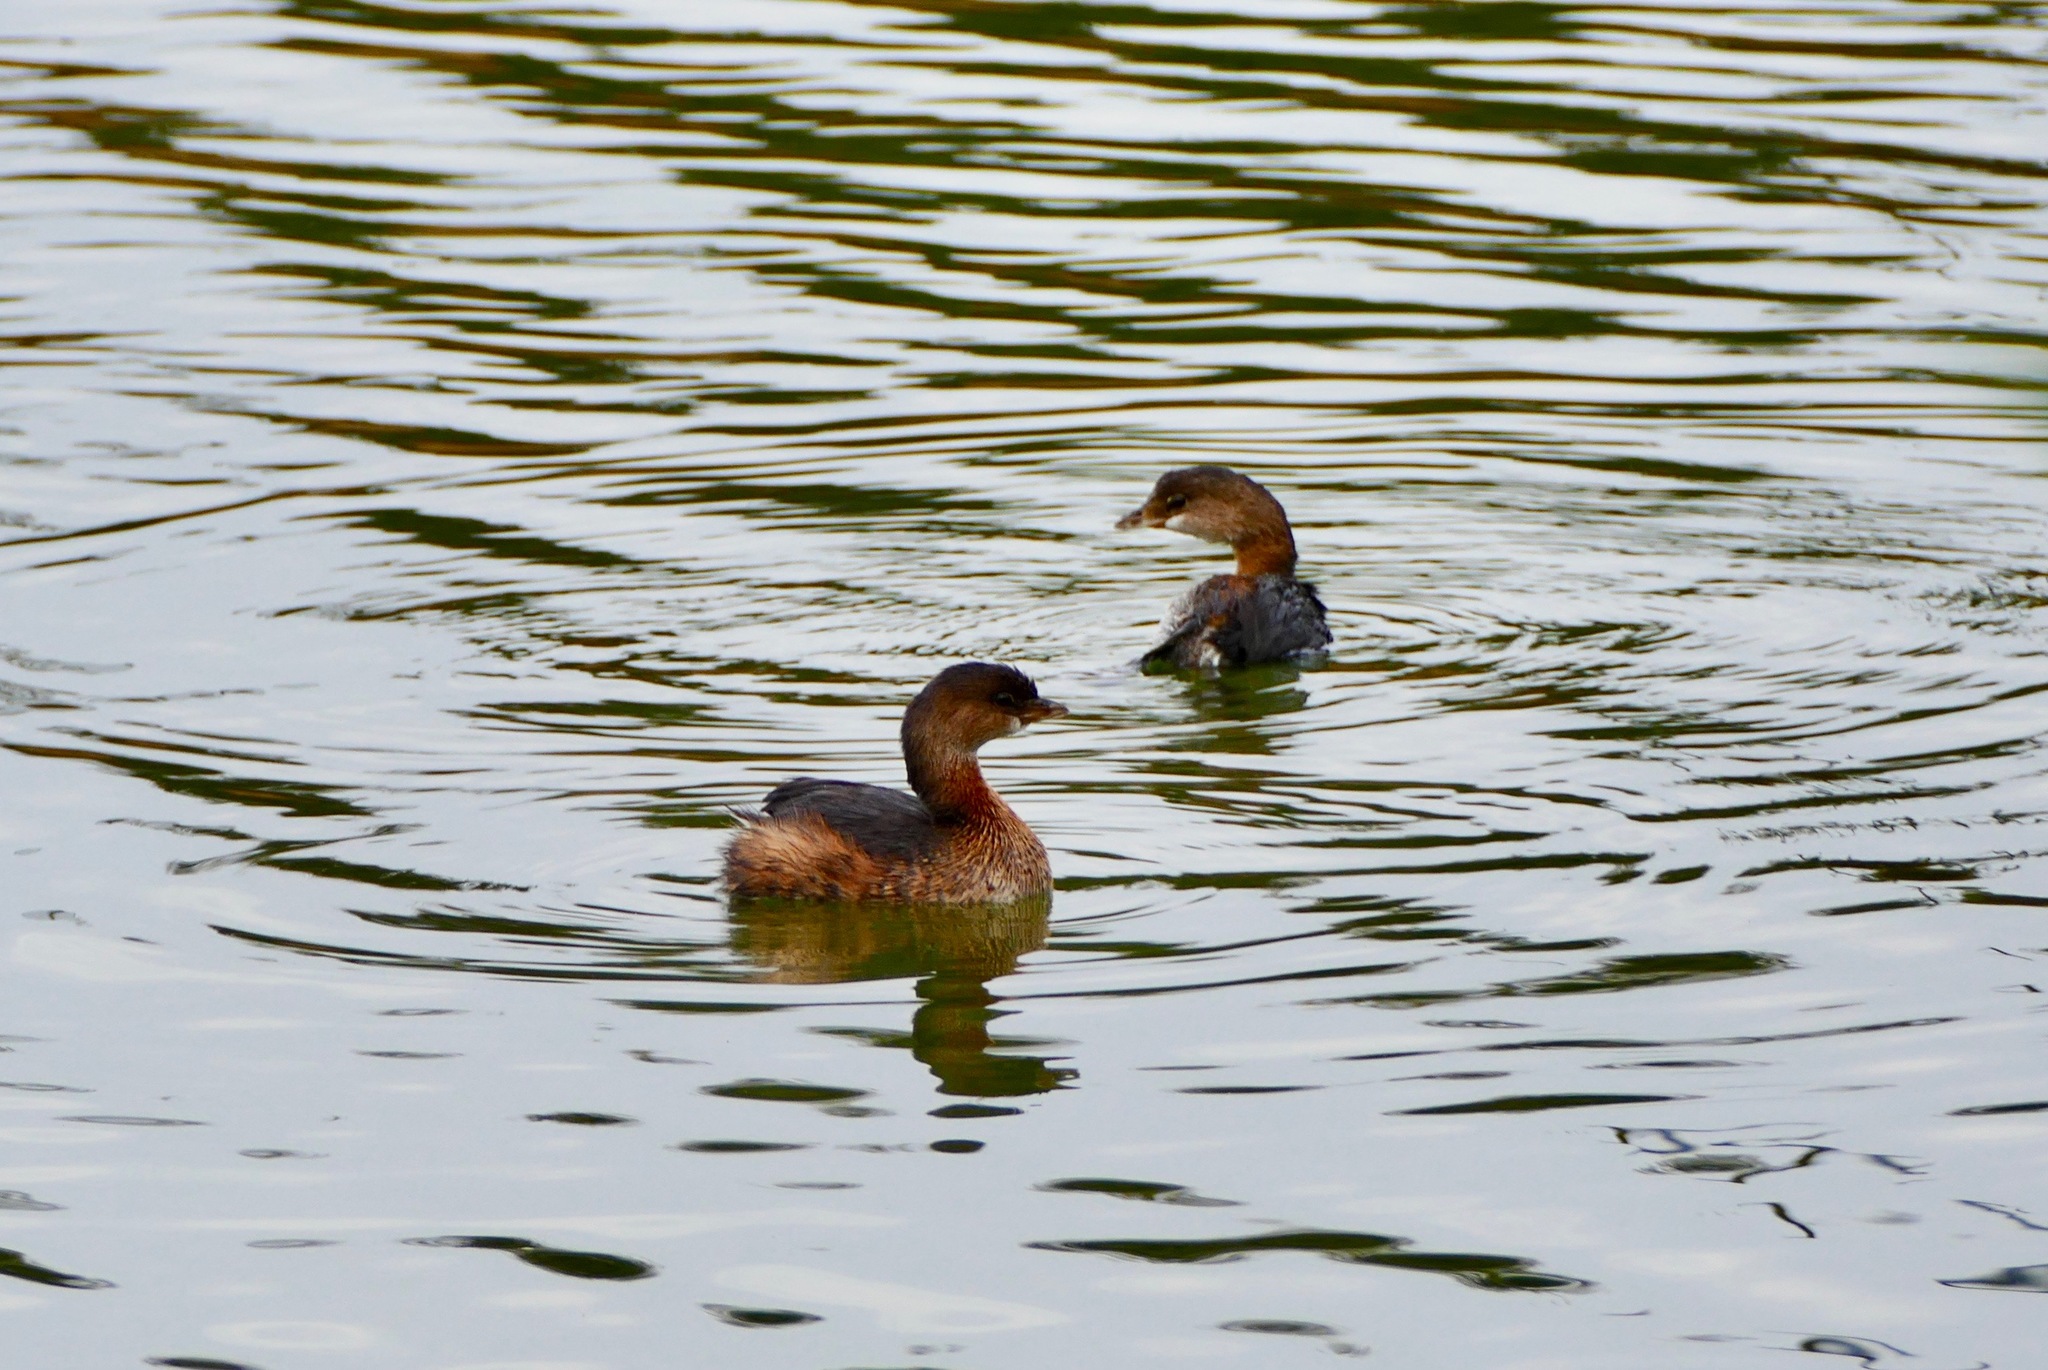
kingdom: Animalia
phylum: Chordata
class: Aves
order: Podicipediformes
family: Podicipedidae
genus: Podilymbus
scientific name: Podilymbus podiceps
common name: Pied-billed grebe
